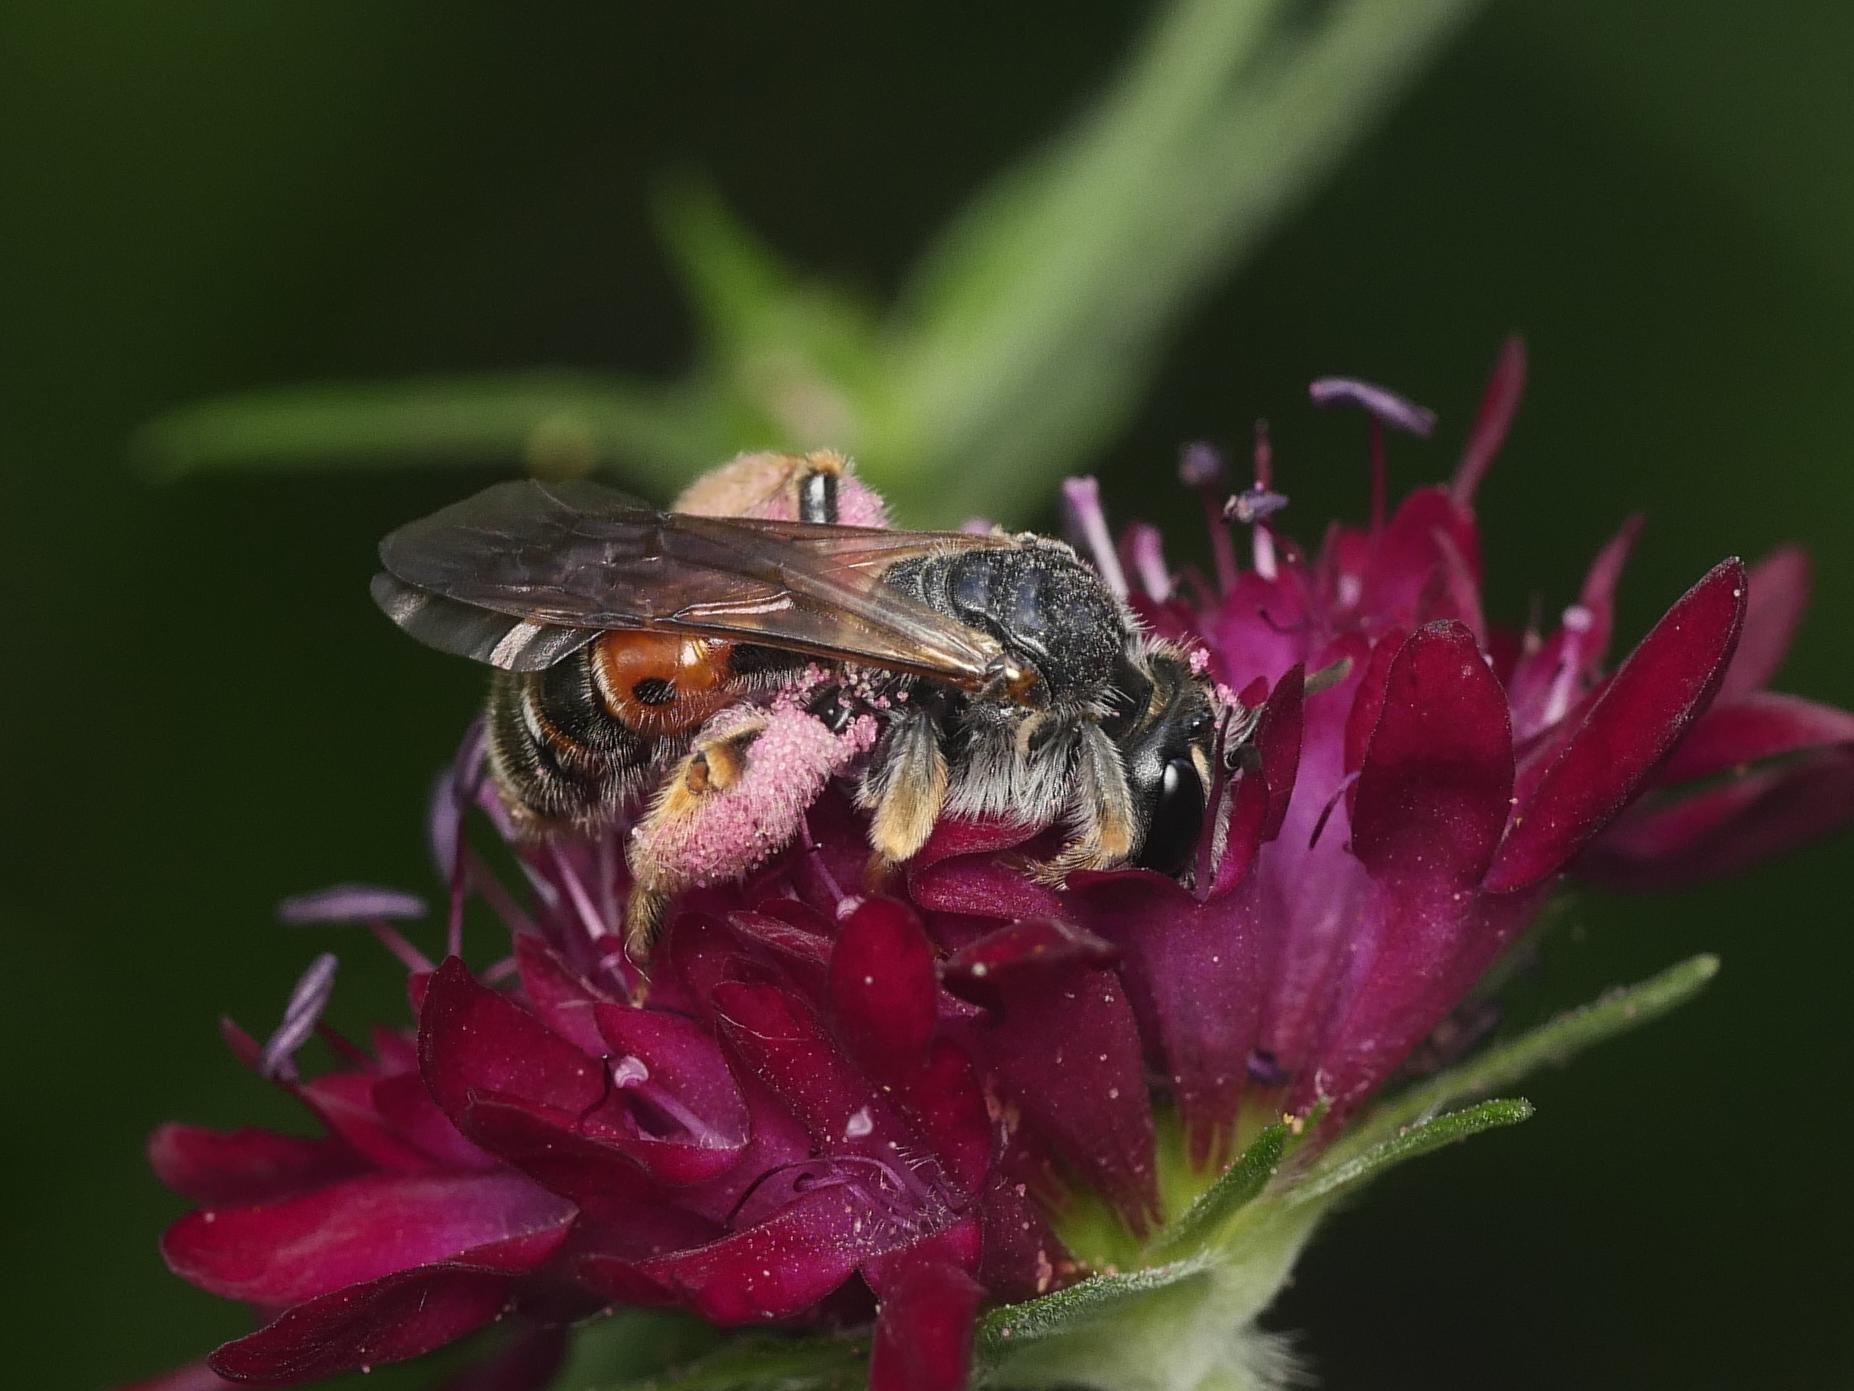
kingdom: Animalia
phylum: Arthropoda
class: Insecta
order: Hymenoptera
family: Andrenidae
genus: Andrena
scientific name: Andrena hattorfiana
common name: Large scabious mining bee
